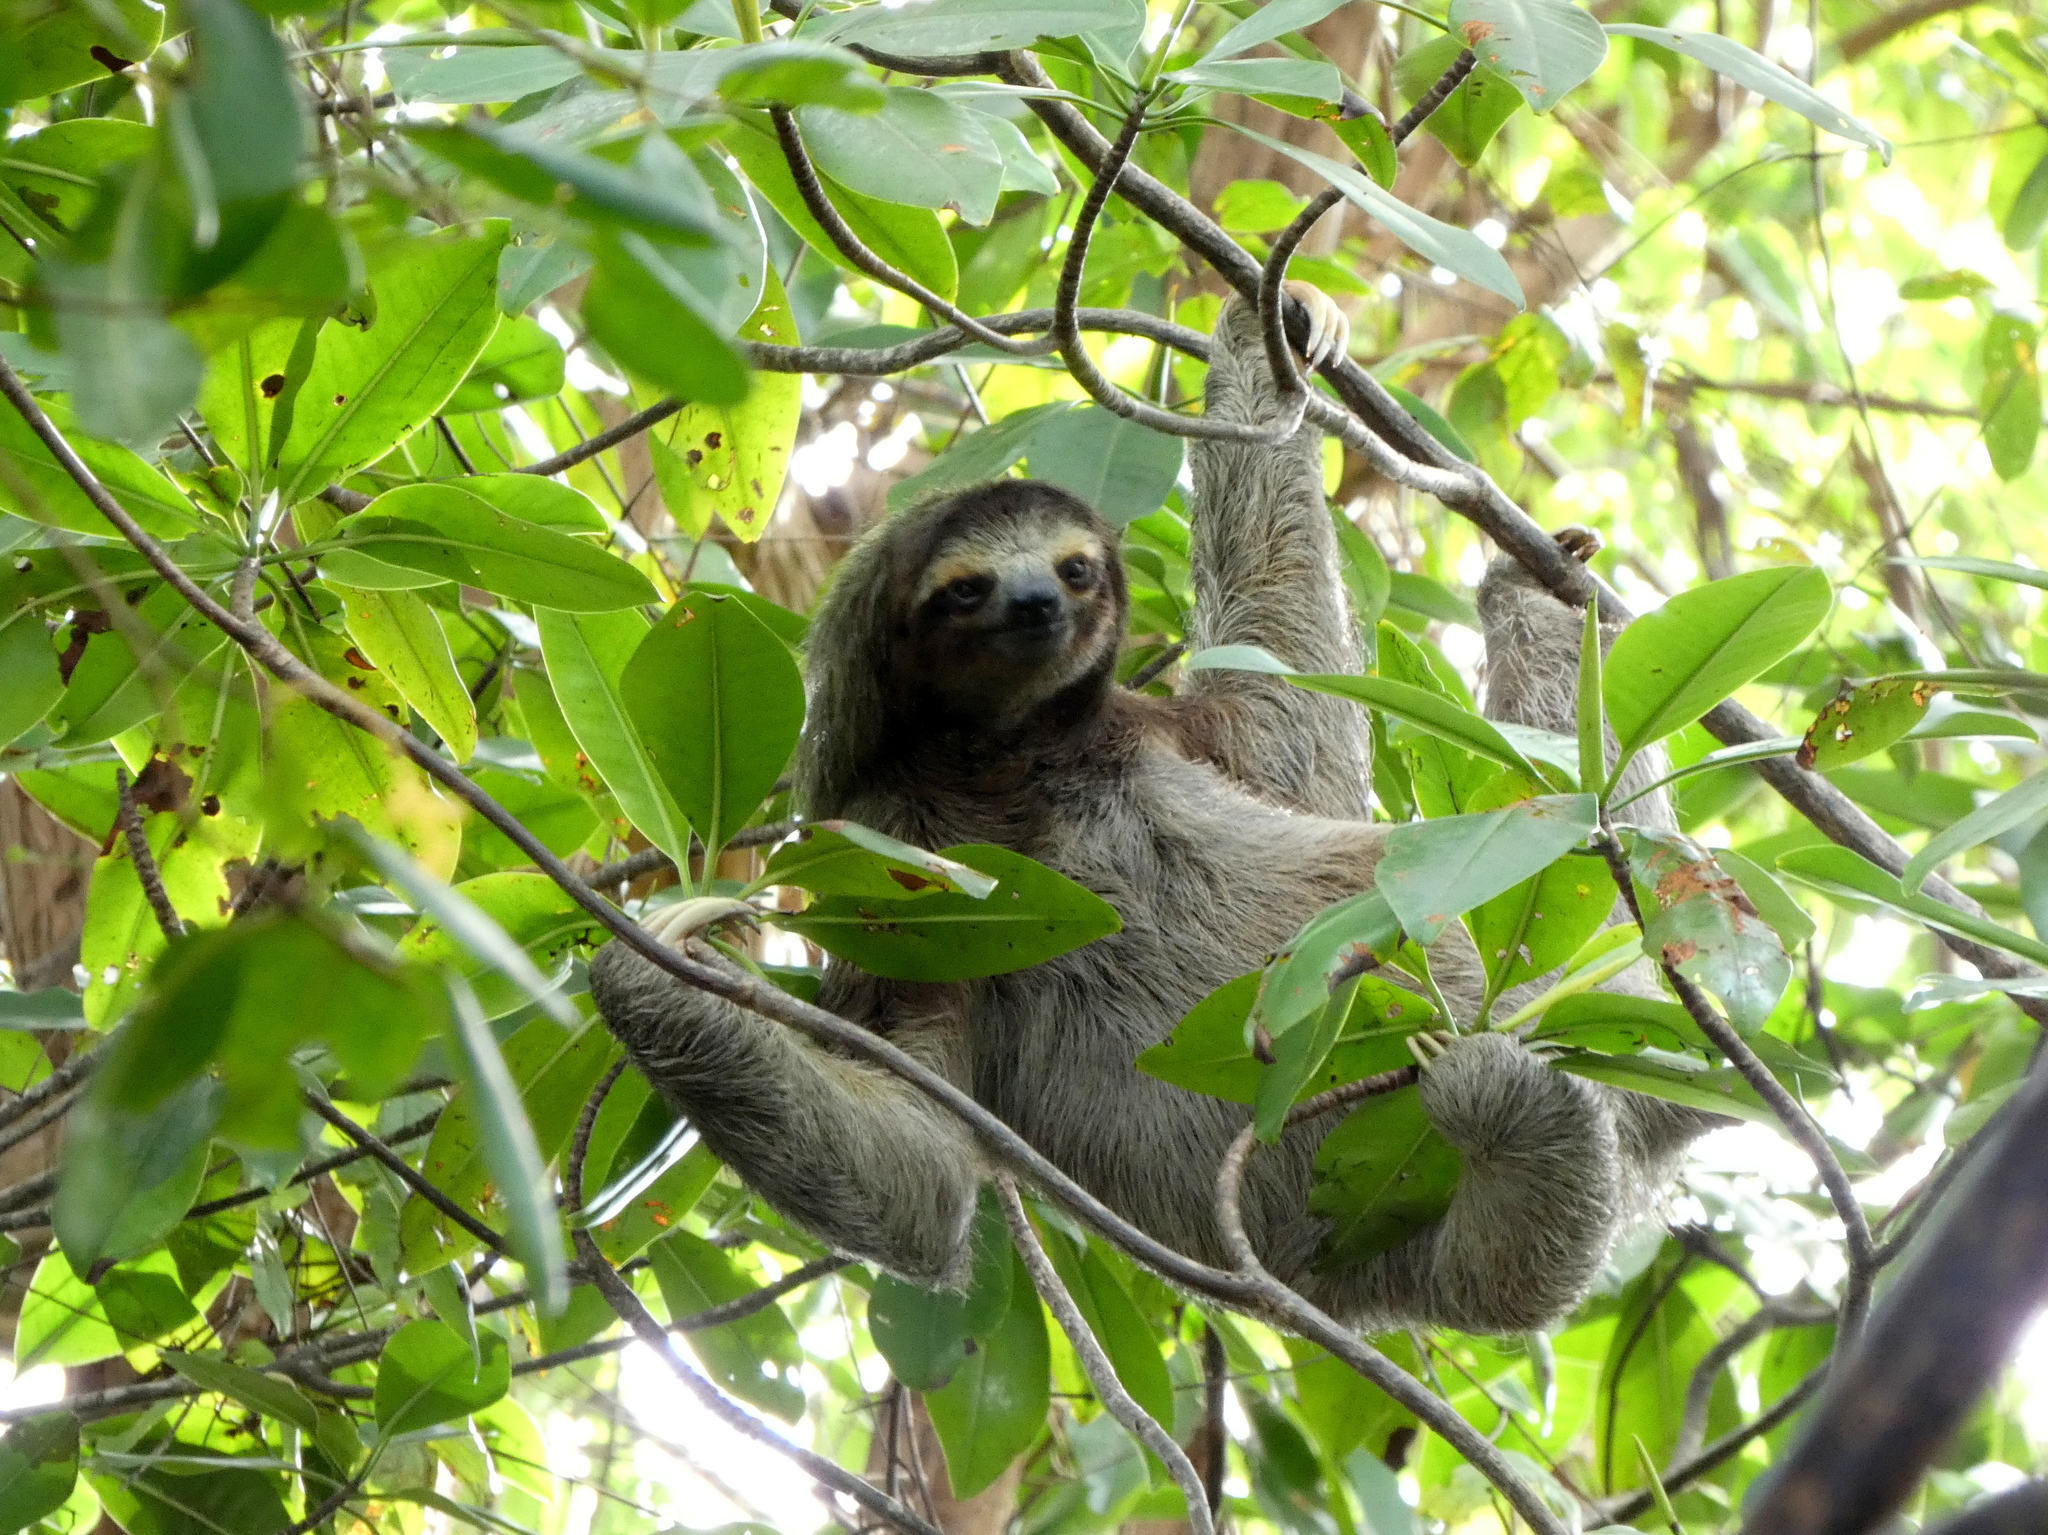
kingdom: Animalia
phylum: Chordata
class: Mammalia
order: Pilosa
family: Bradypodidae
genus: Bradypus
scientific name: Bradypus variegatus
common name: Brown-throated three-toed sloth
